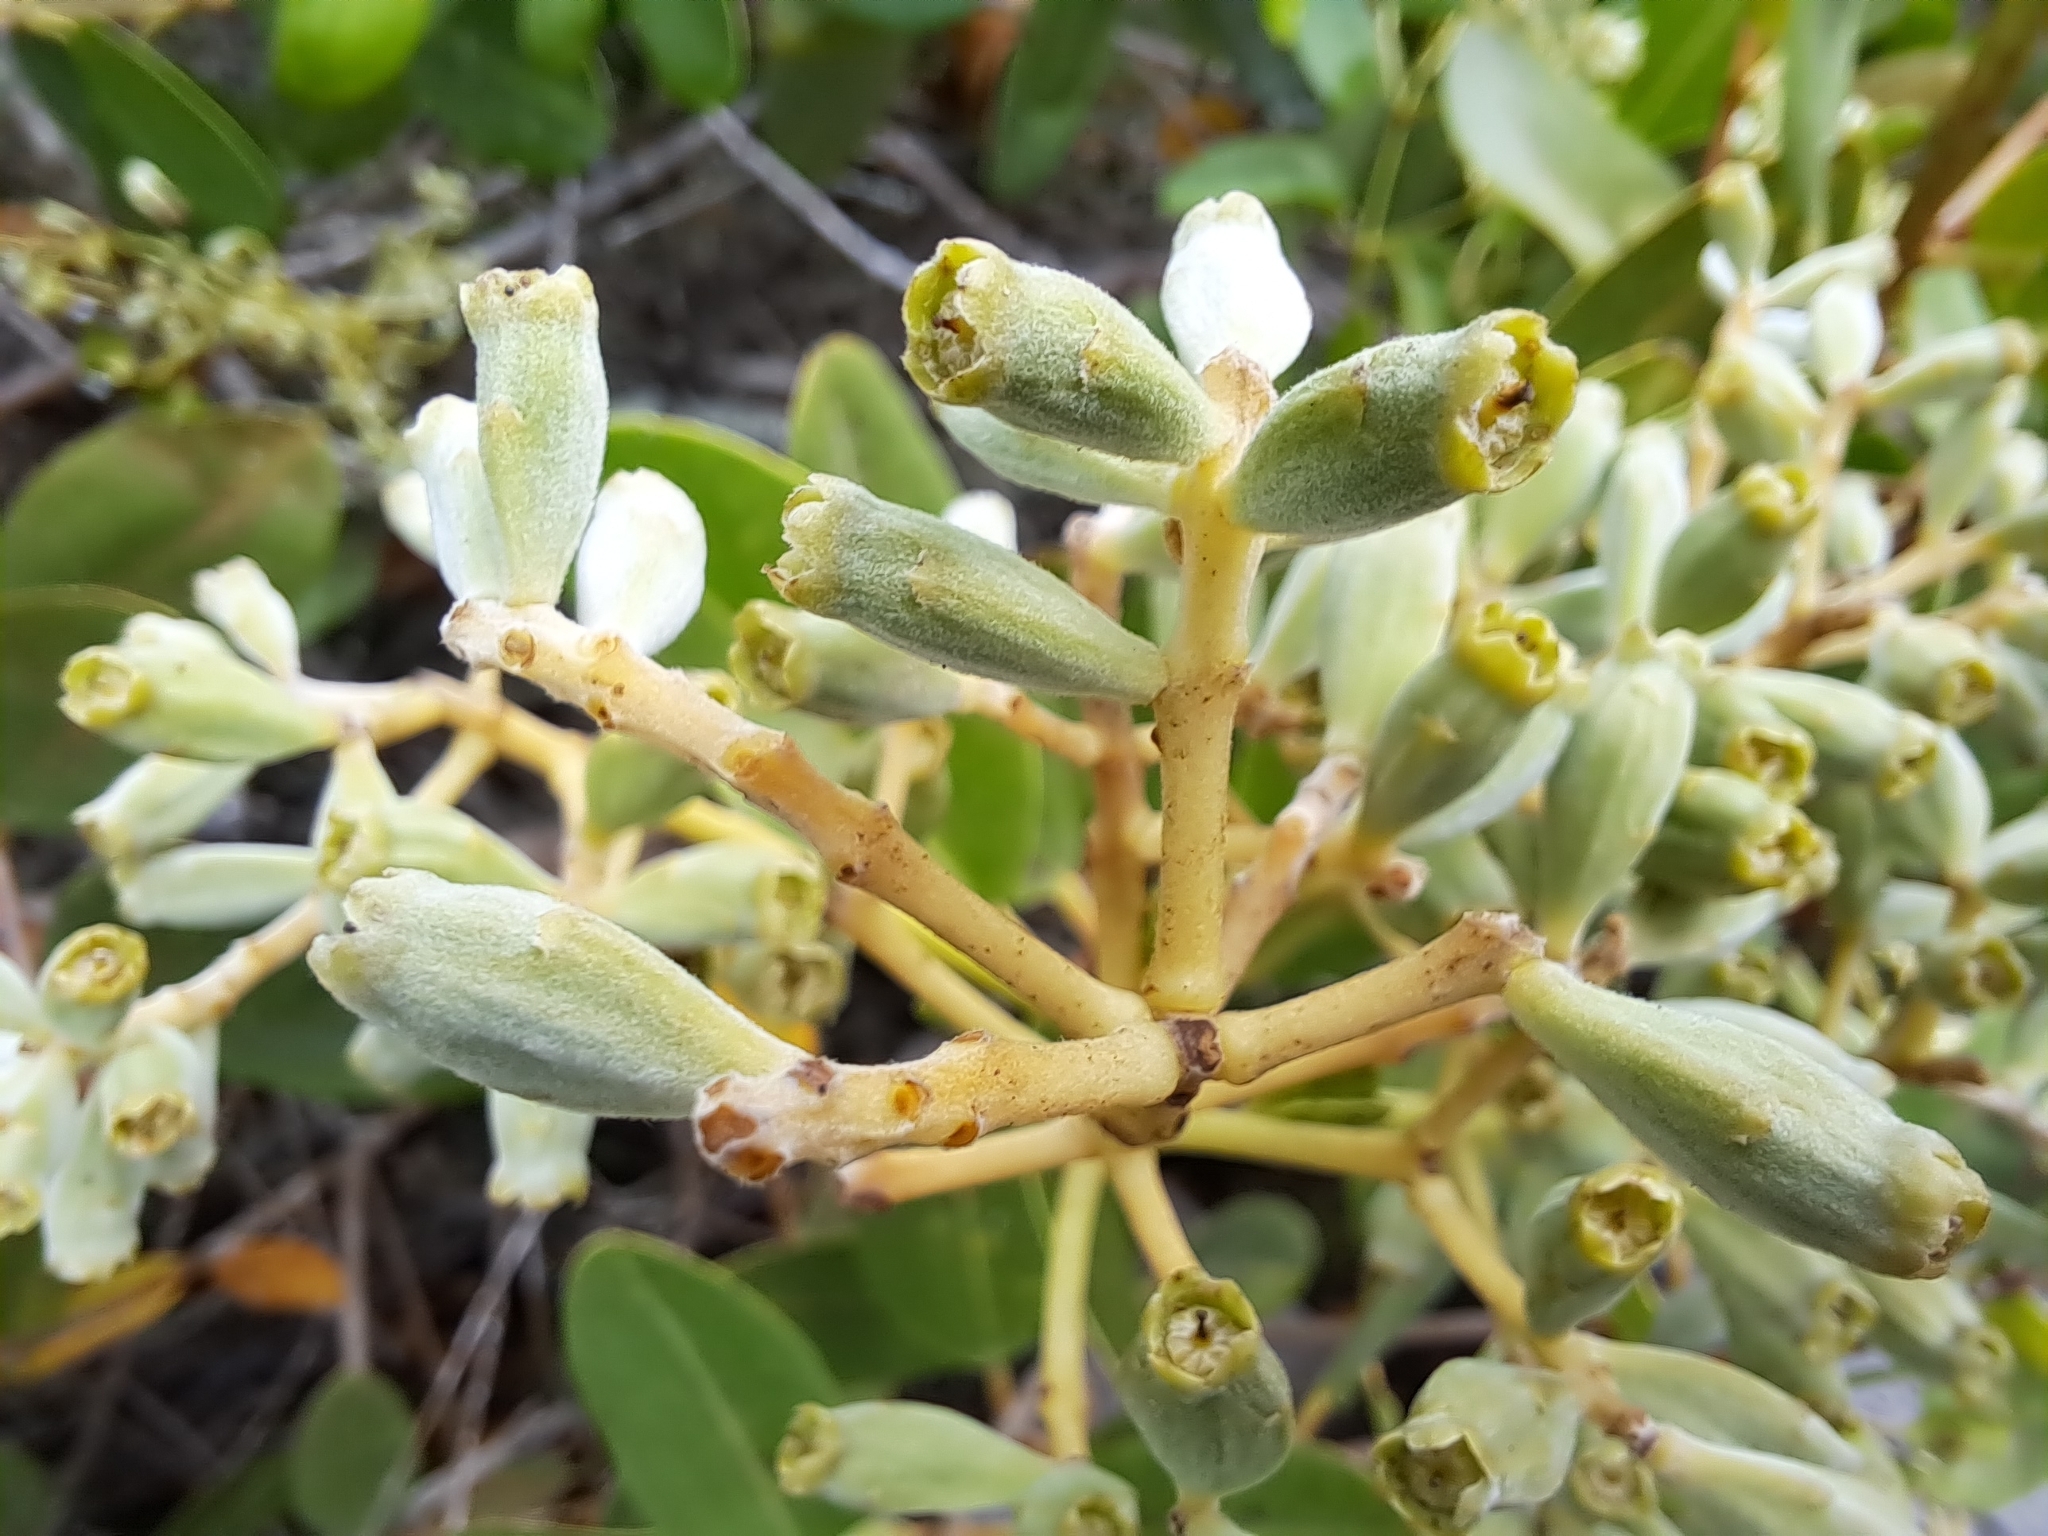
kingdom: Plantae
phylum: Tracheophyta
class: Magnoliopsida
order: Myrtales
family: Combretaceae
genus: Laguncularia
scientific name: Laguncularia racemosa
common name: White mangrove
